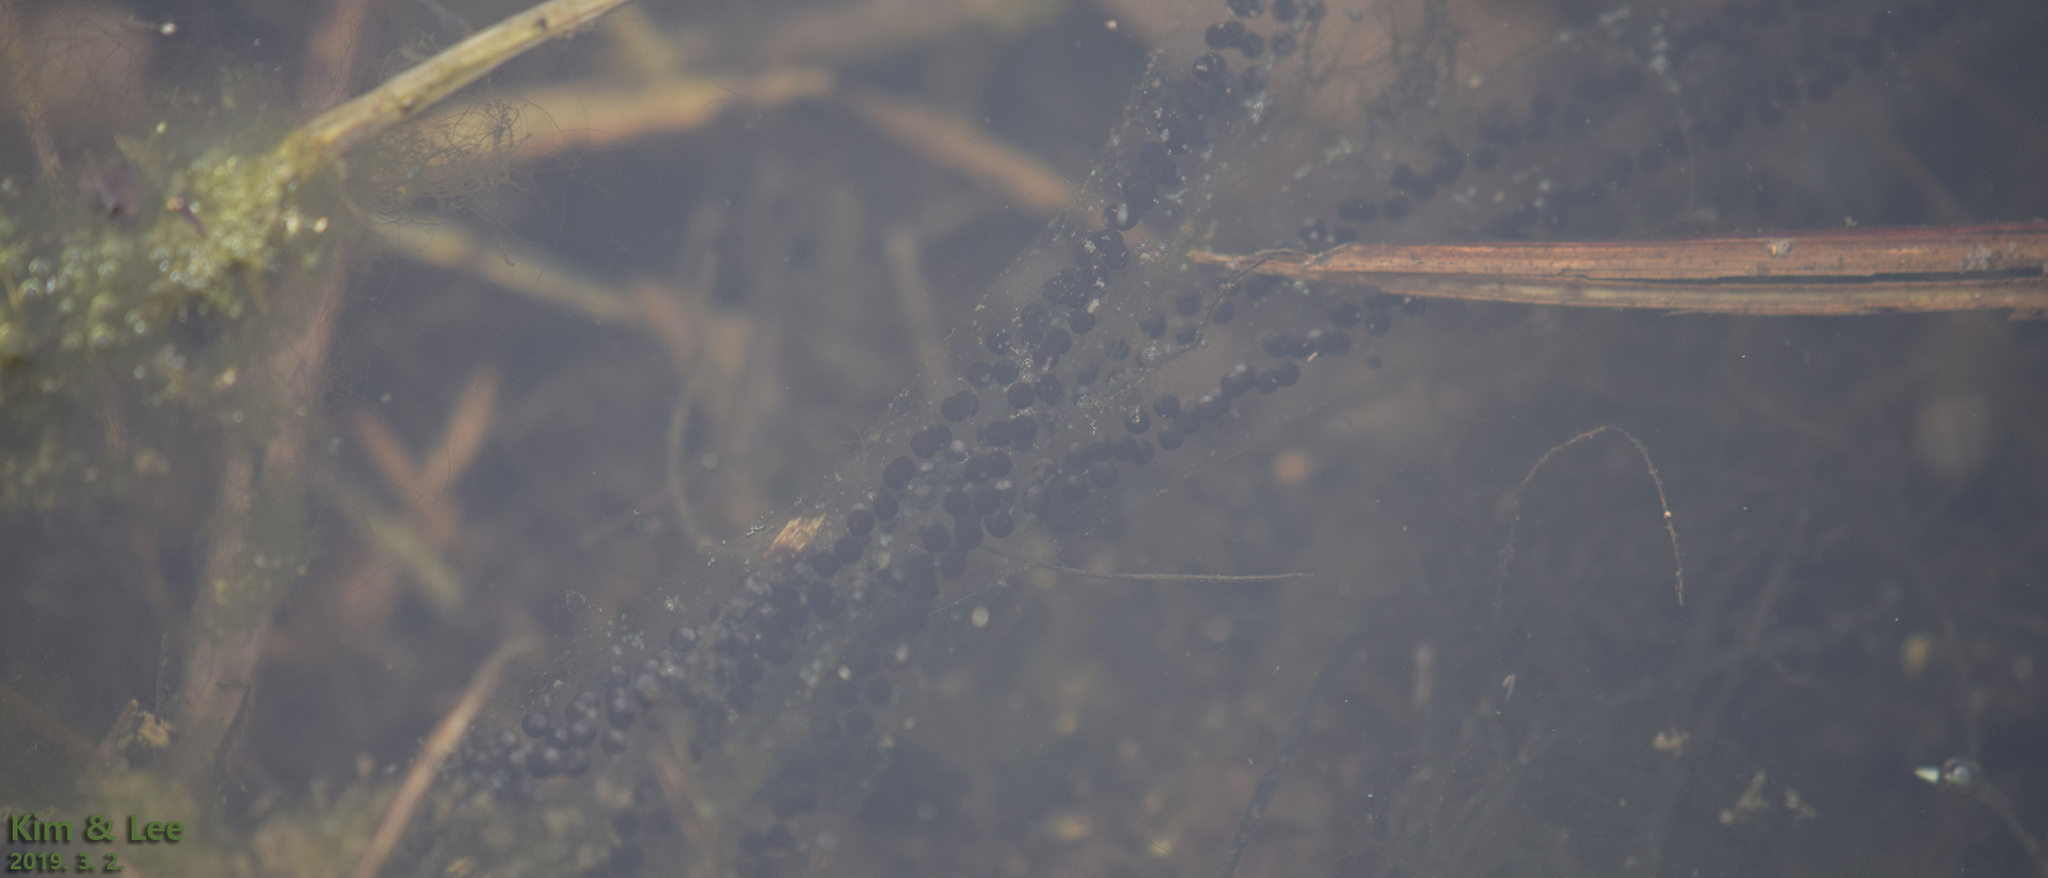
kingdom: Animalia
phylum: Chordata
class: Amphibia
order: Anura
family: Bufonidae
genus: Bufo
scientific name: Bufo gargarizans
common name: Asiatic toad
